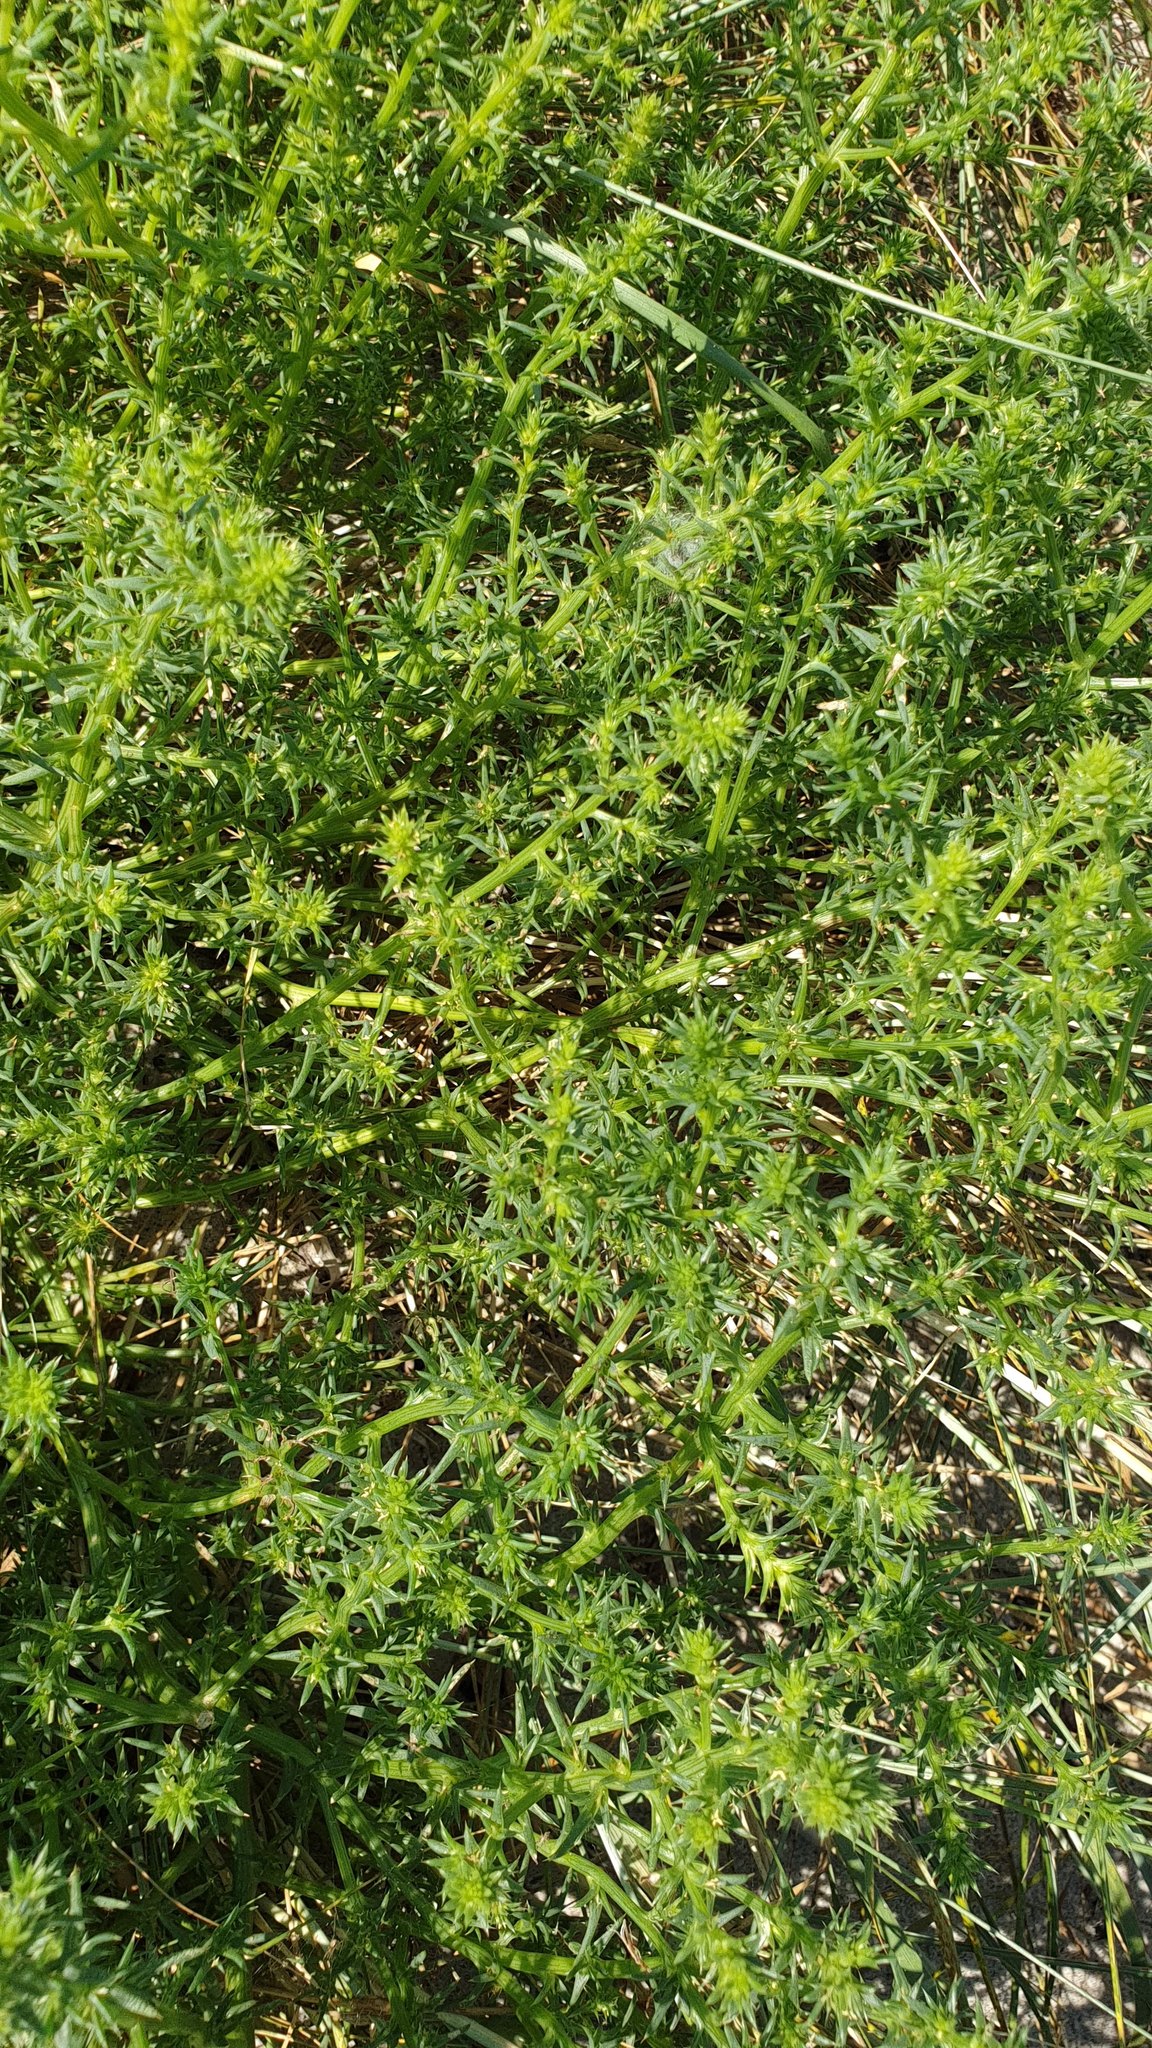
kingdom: Plantae
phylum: Tracheophyta
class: Magnoliopsida
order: Caryophyllales
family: Amaranthaceae
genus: Salsola
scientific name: Salsola kali
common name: Saltwort
